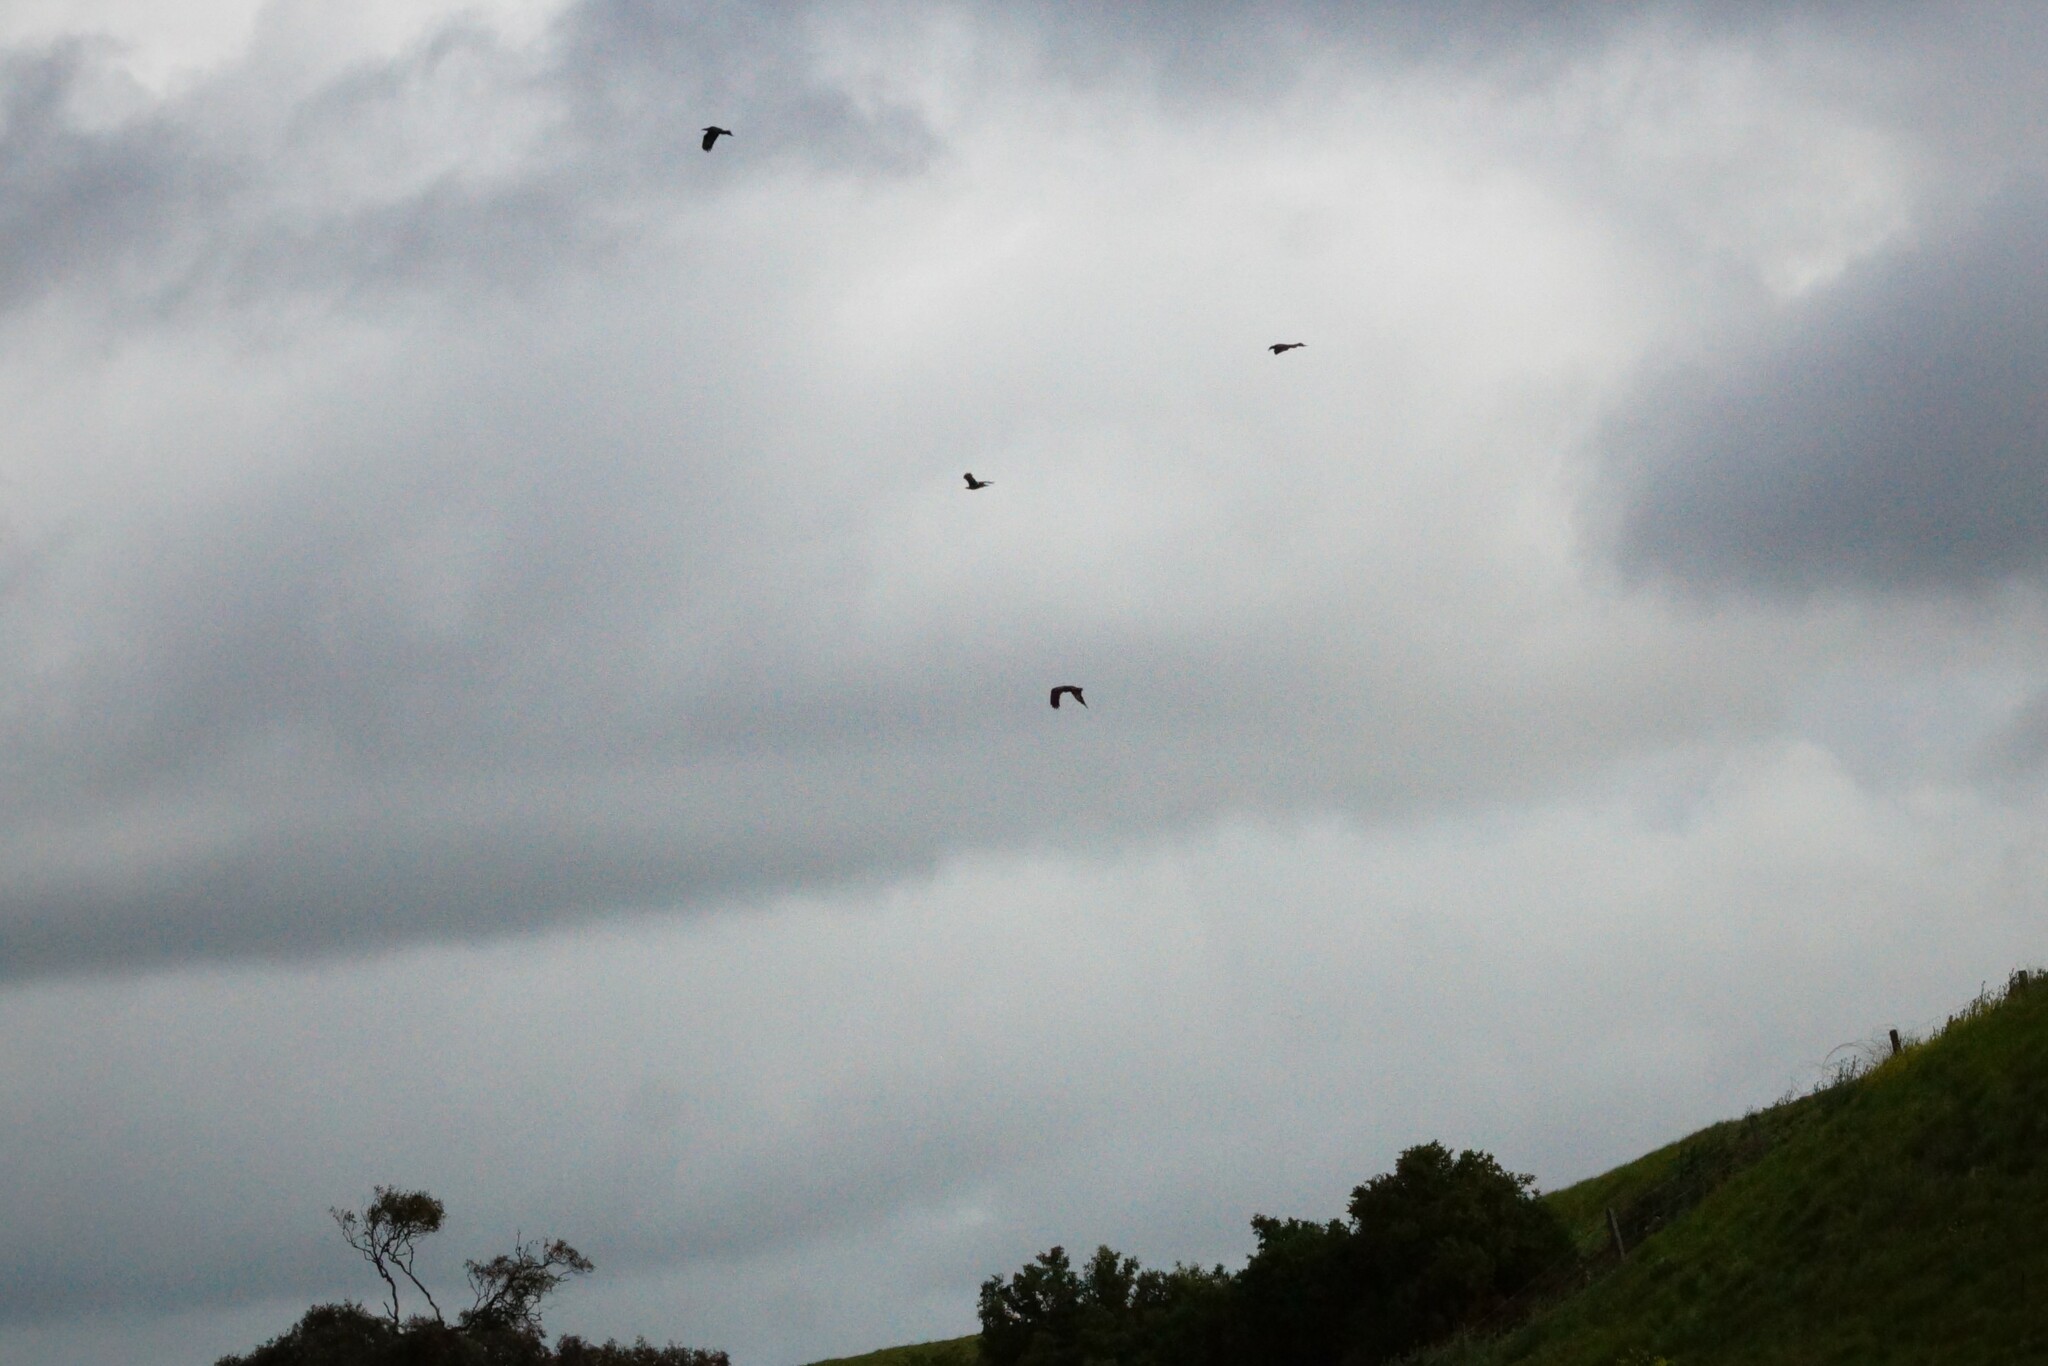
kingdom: Animalia
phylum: Chordata
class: Aves
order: Accipitriformes
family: Accipitridae
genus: Aquila
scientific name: Aquila audax
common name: Wedge-tailed eagle
